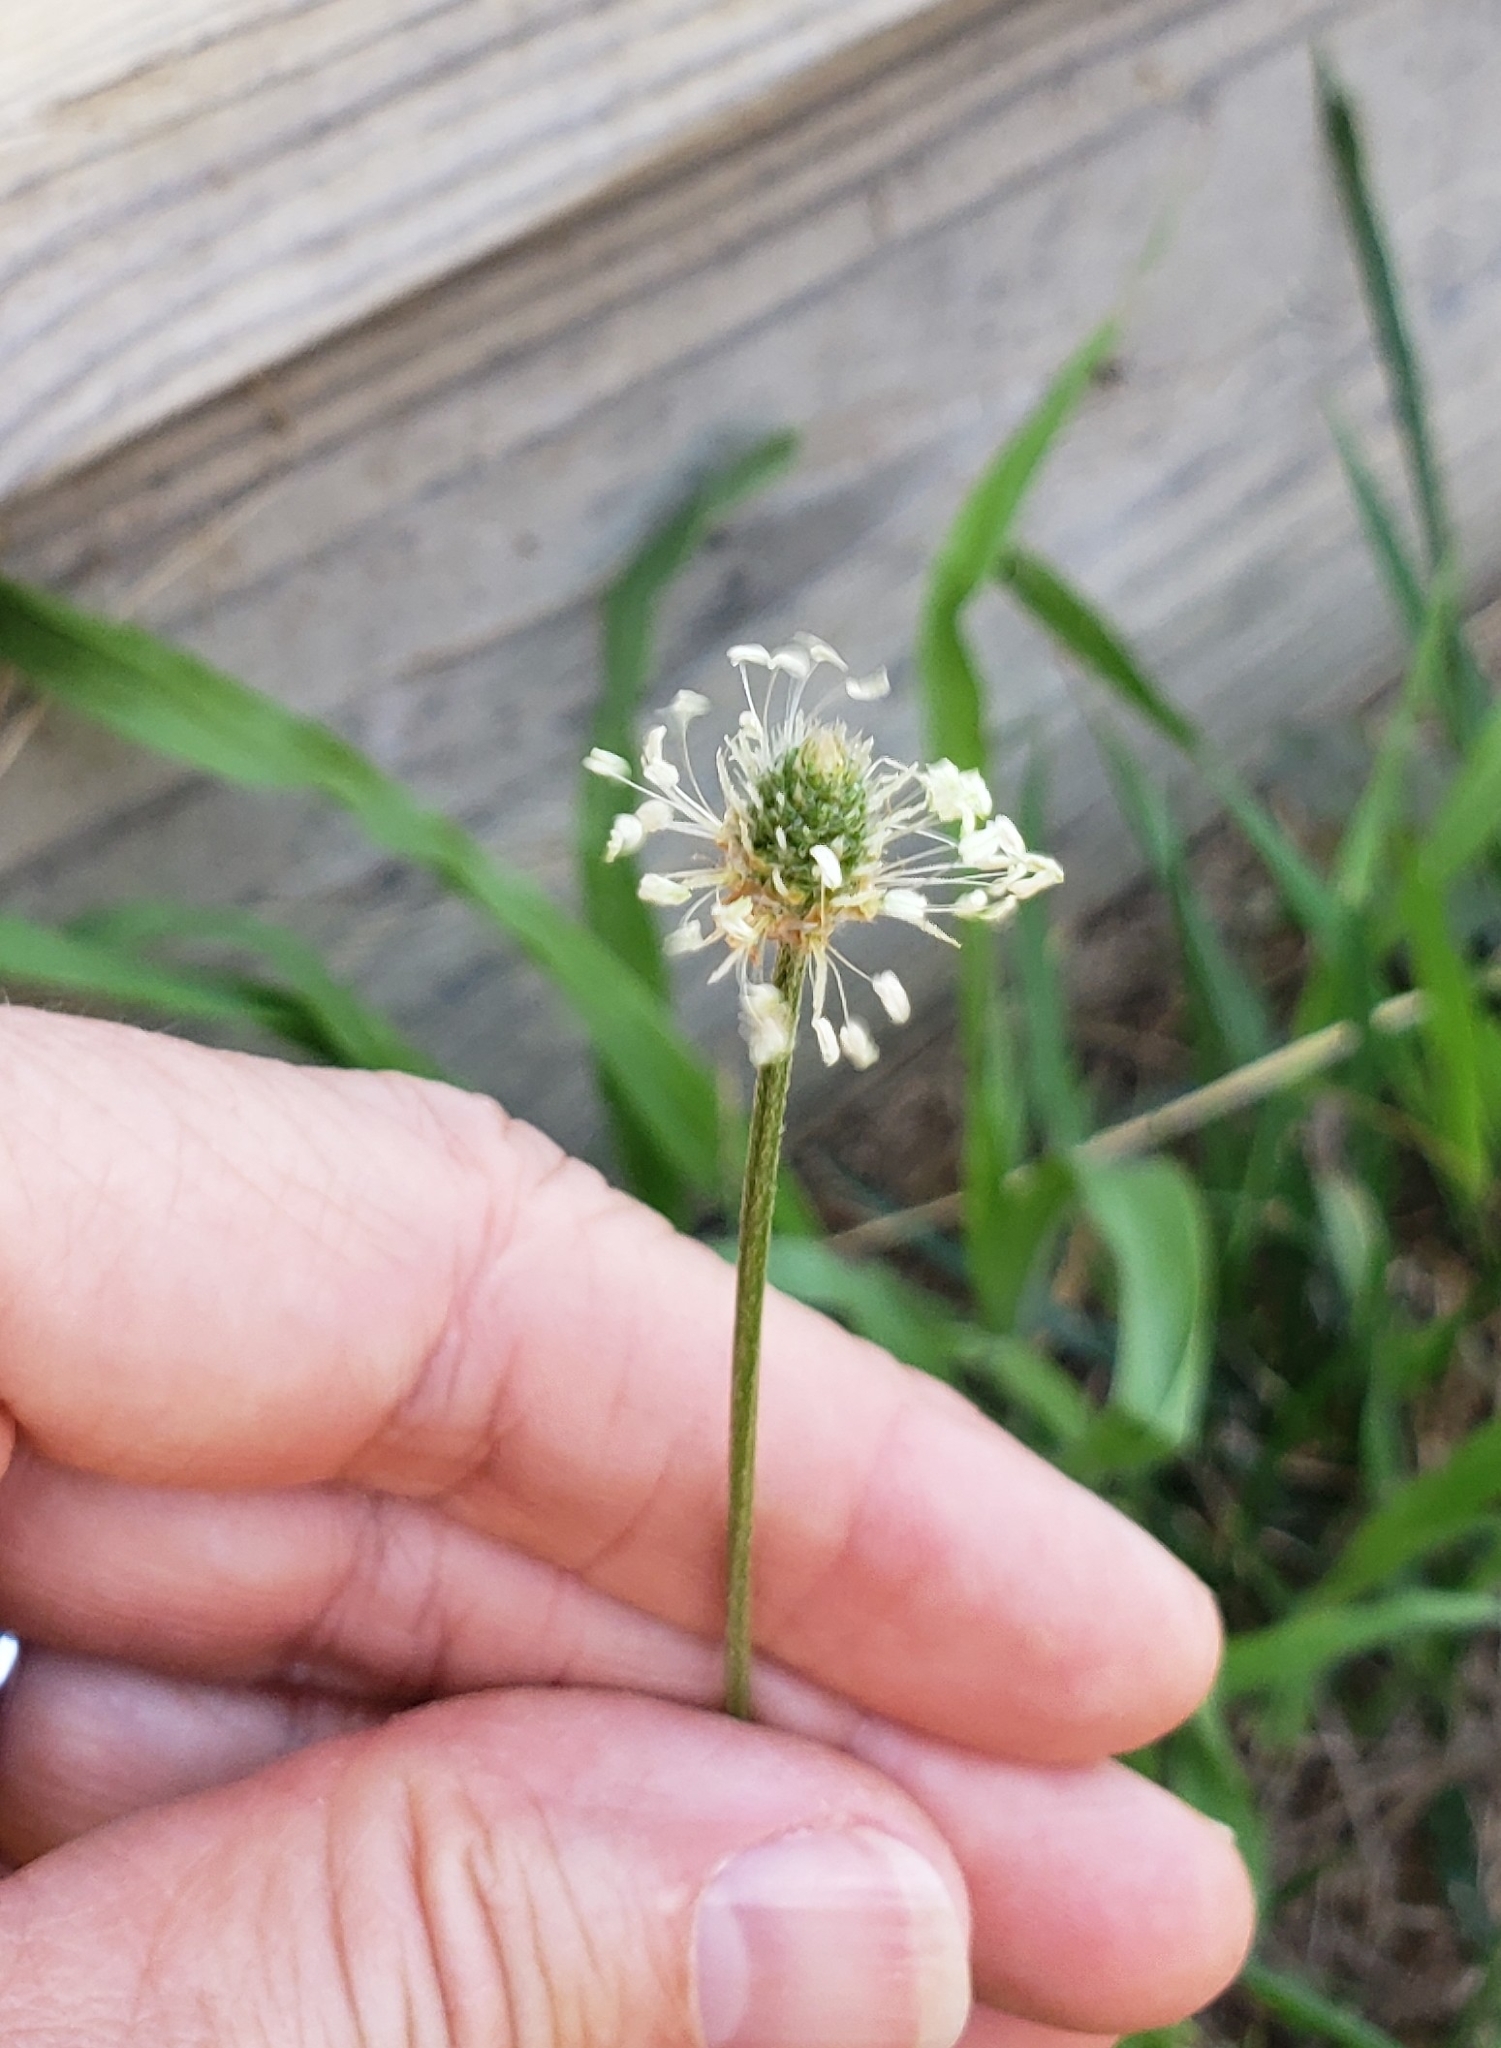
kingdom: Plantae
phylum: Tracheophyta
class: Magnoliopsida
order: Lamiales
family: Plantaginaceae
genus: Plantago
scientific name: Plantago lanceolata
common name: Ribwort plantain
